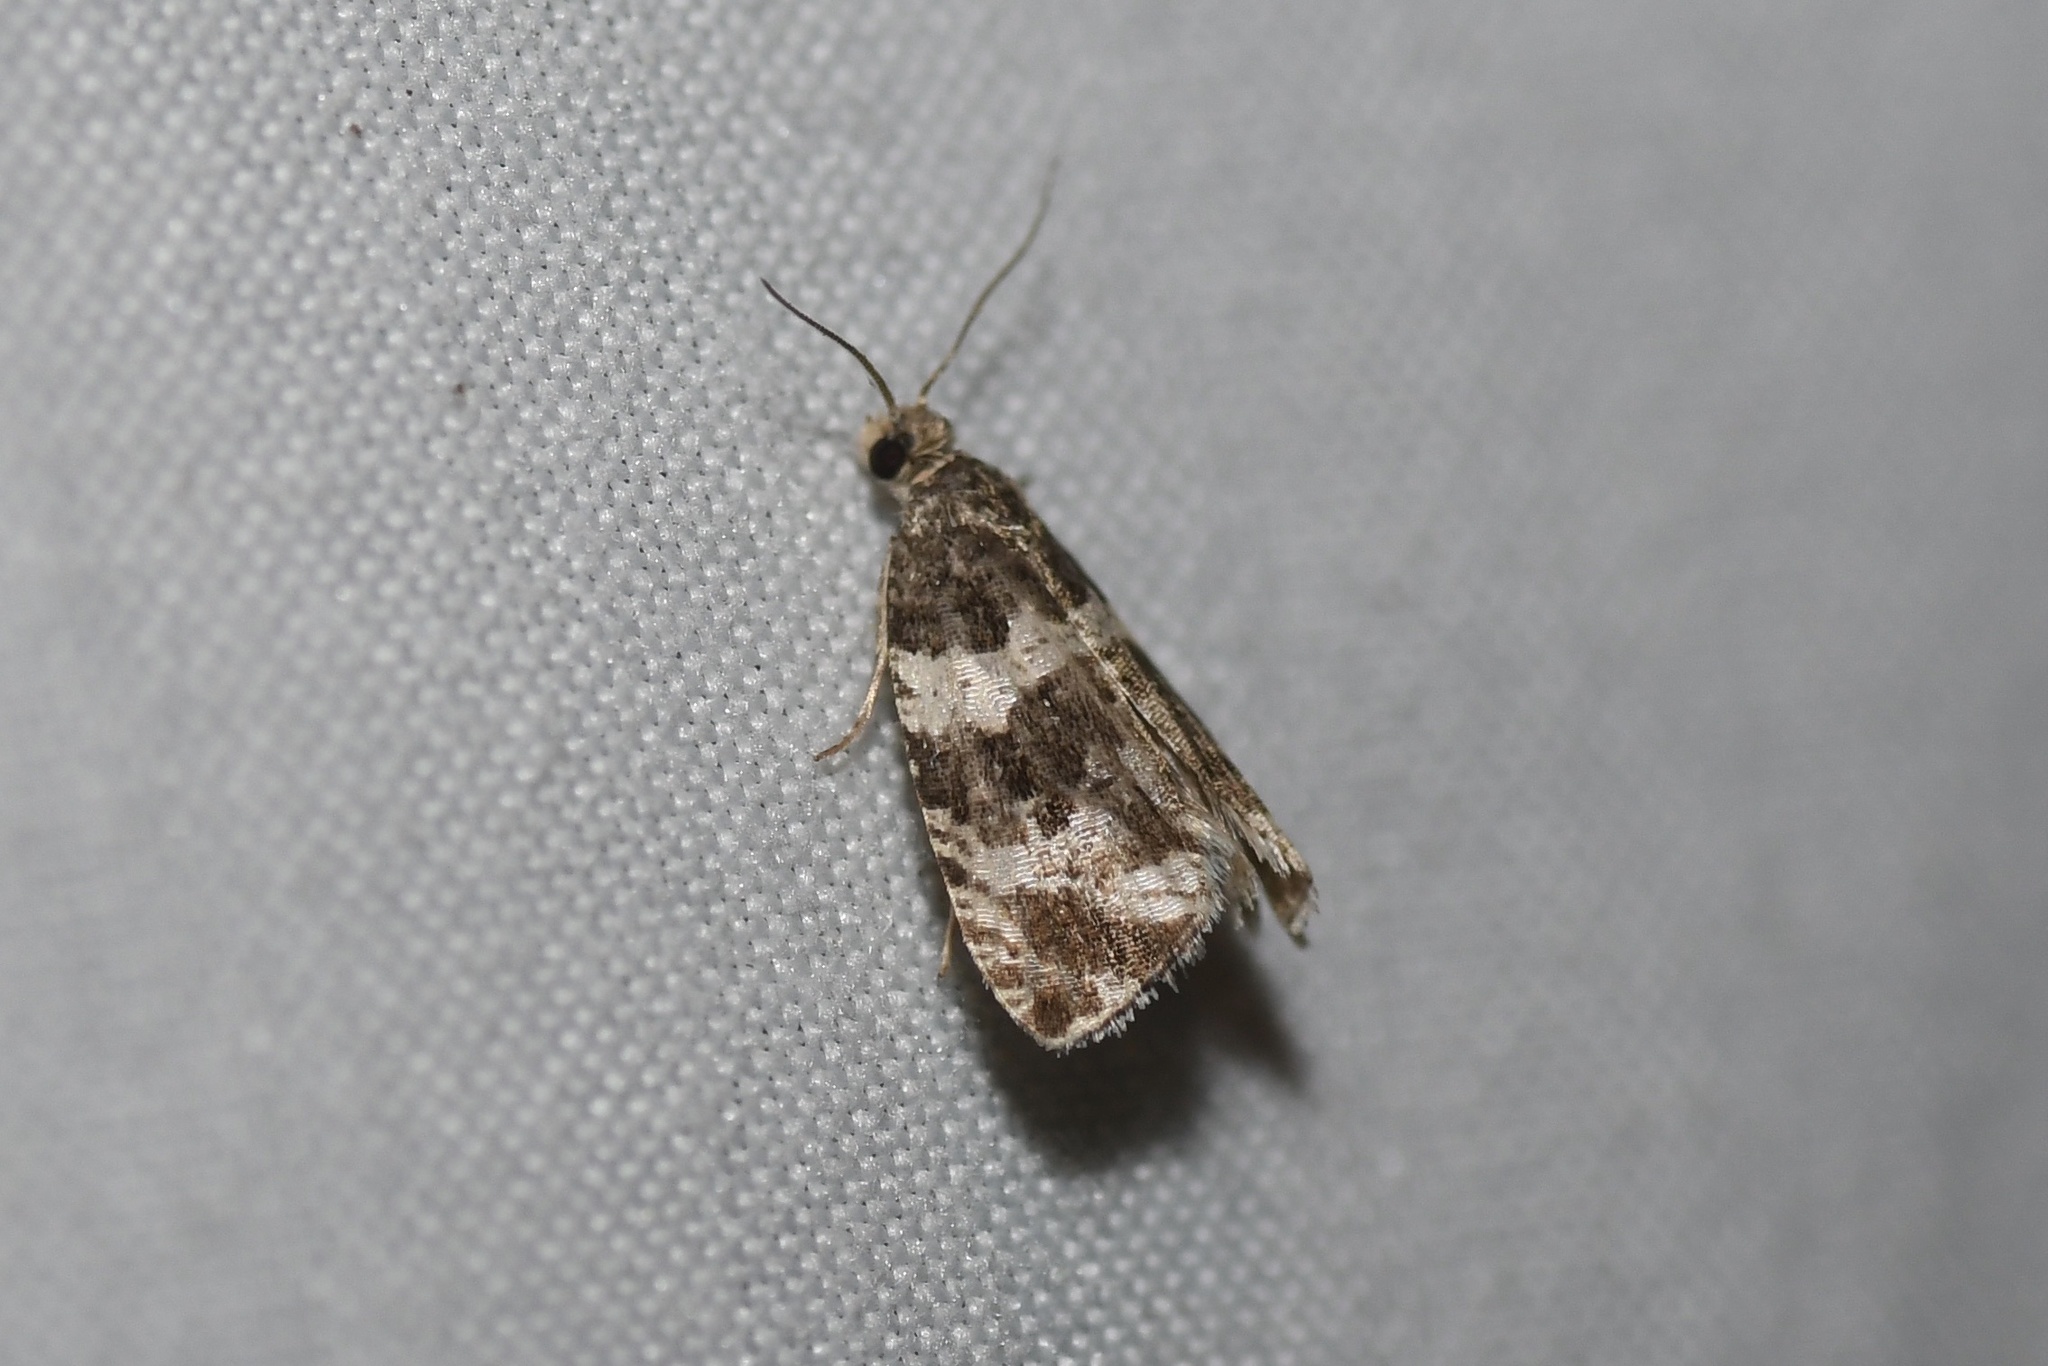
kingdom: Animalia
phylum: Arthropoda
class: Insecta
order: Lepidoptera
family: Tortricidae
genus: Olethreutes
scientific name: Olethreutes fasciatana
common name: Banded olethreutes moth
